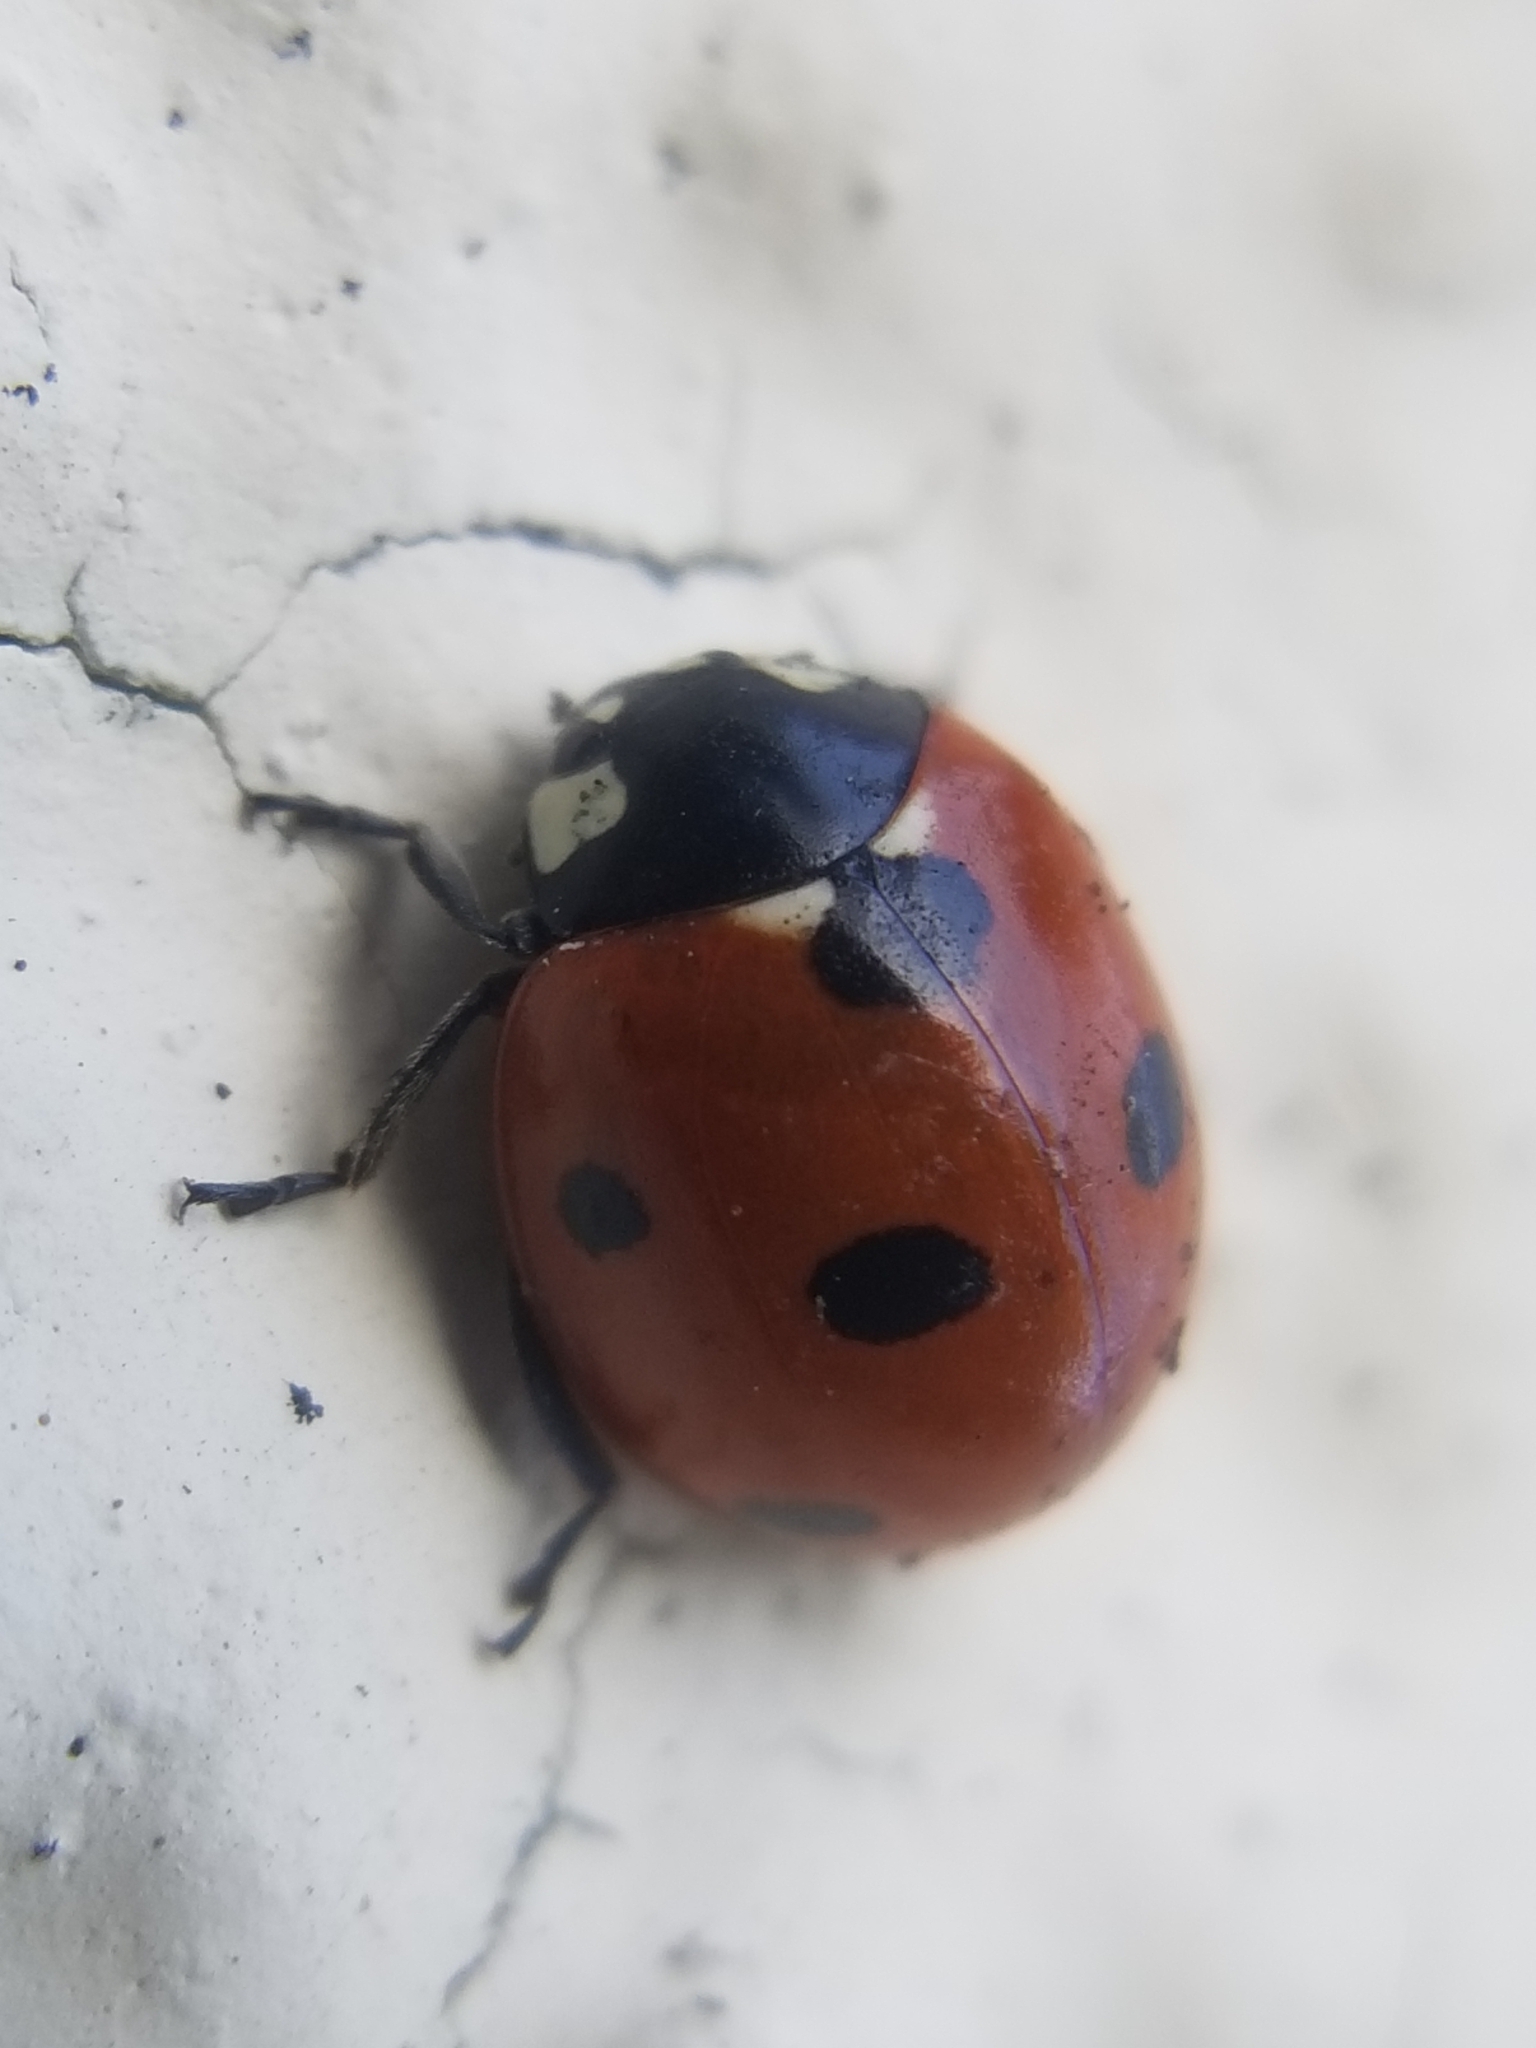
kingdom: Animalia
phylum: Arthropoda
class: Insecta
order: Coleoptera
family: Coccinellidae
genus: Coccinella
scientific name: Coccinella septempunctata
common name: Sevenspotted lady beetle
